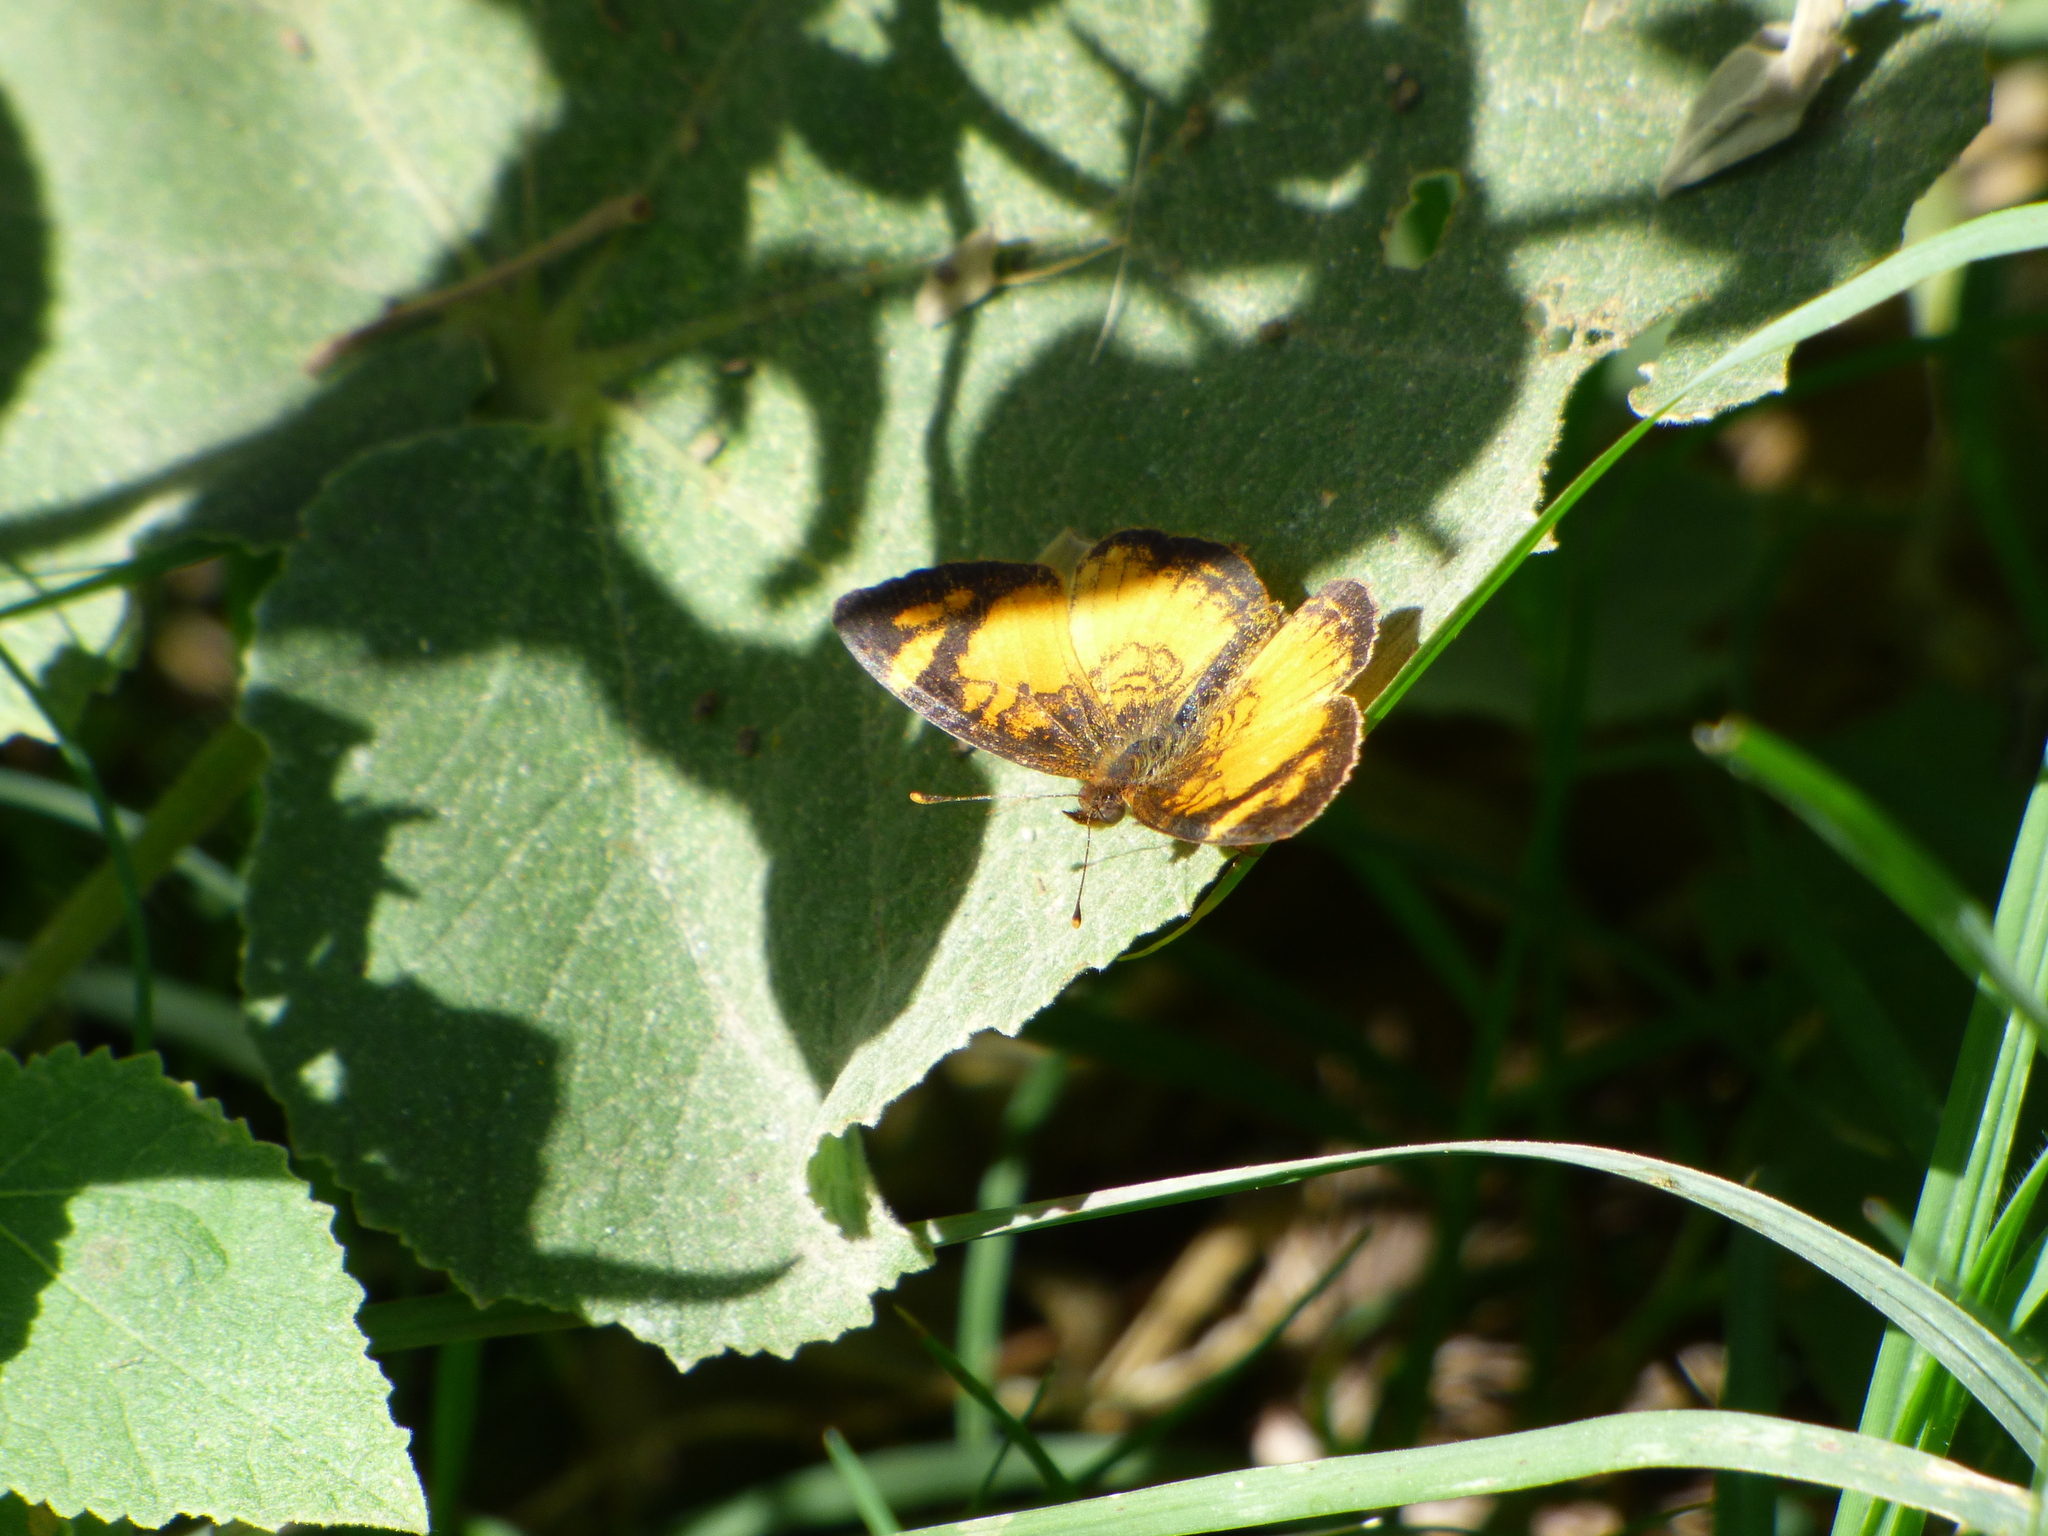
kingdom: Animalia
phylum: Arthropoda
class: Insecta
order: Lepidoptera
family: Nymphalidae
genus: Tegosa
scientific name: Tegosa claudina
